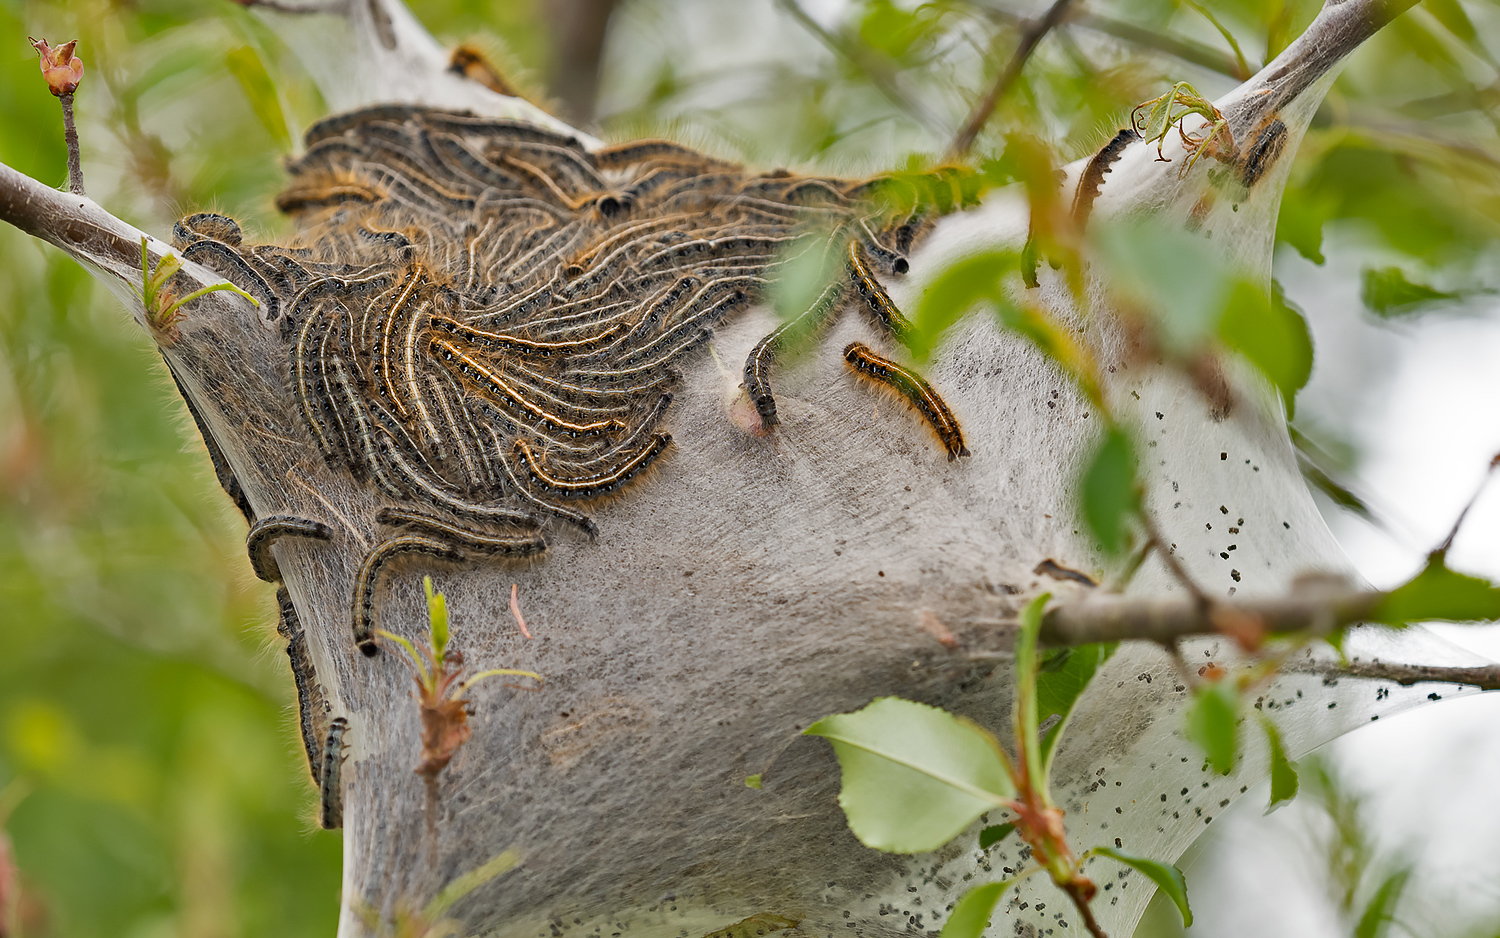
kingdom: Animalia
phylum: Arthropoda
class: Insecta
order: Lepidoptera
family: Lasiocampidae
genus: Malacosoma
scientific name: Malacosoma americana
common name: Eastern tent caterpillar moth
